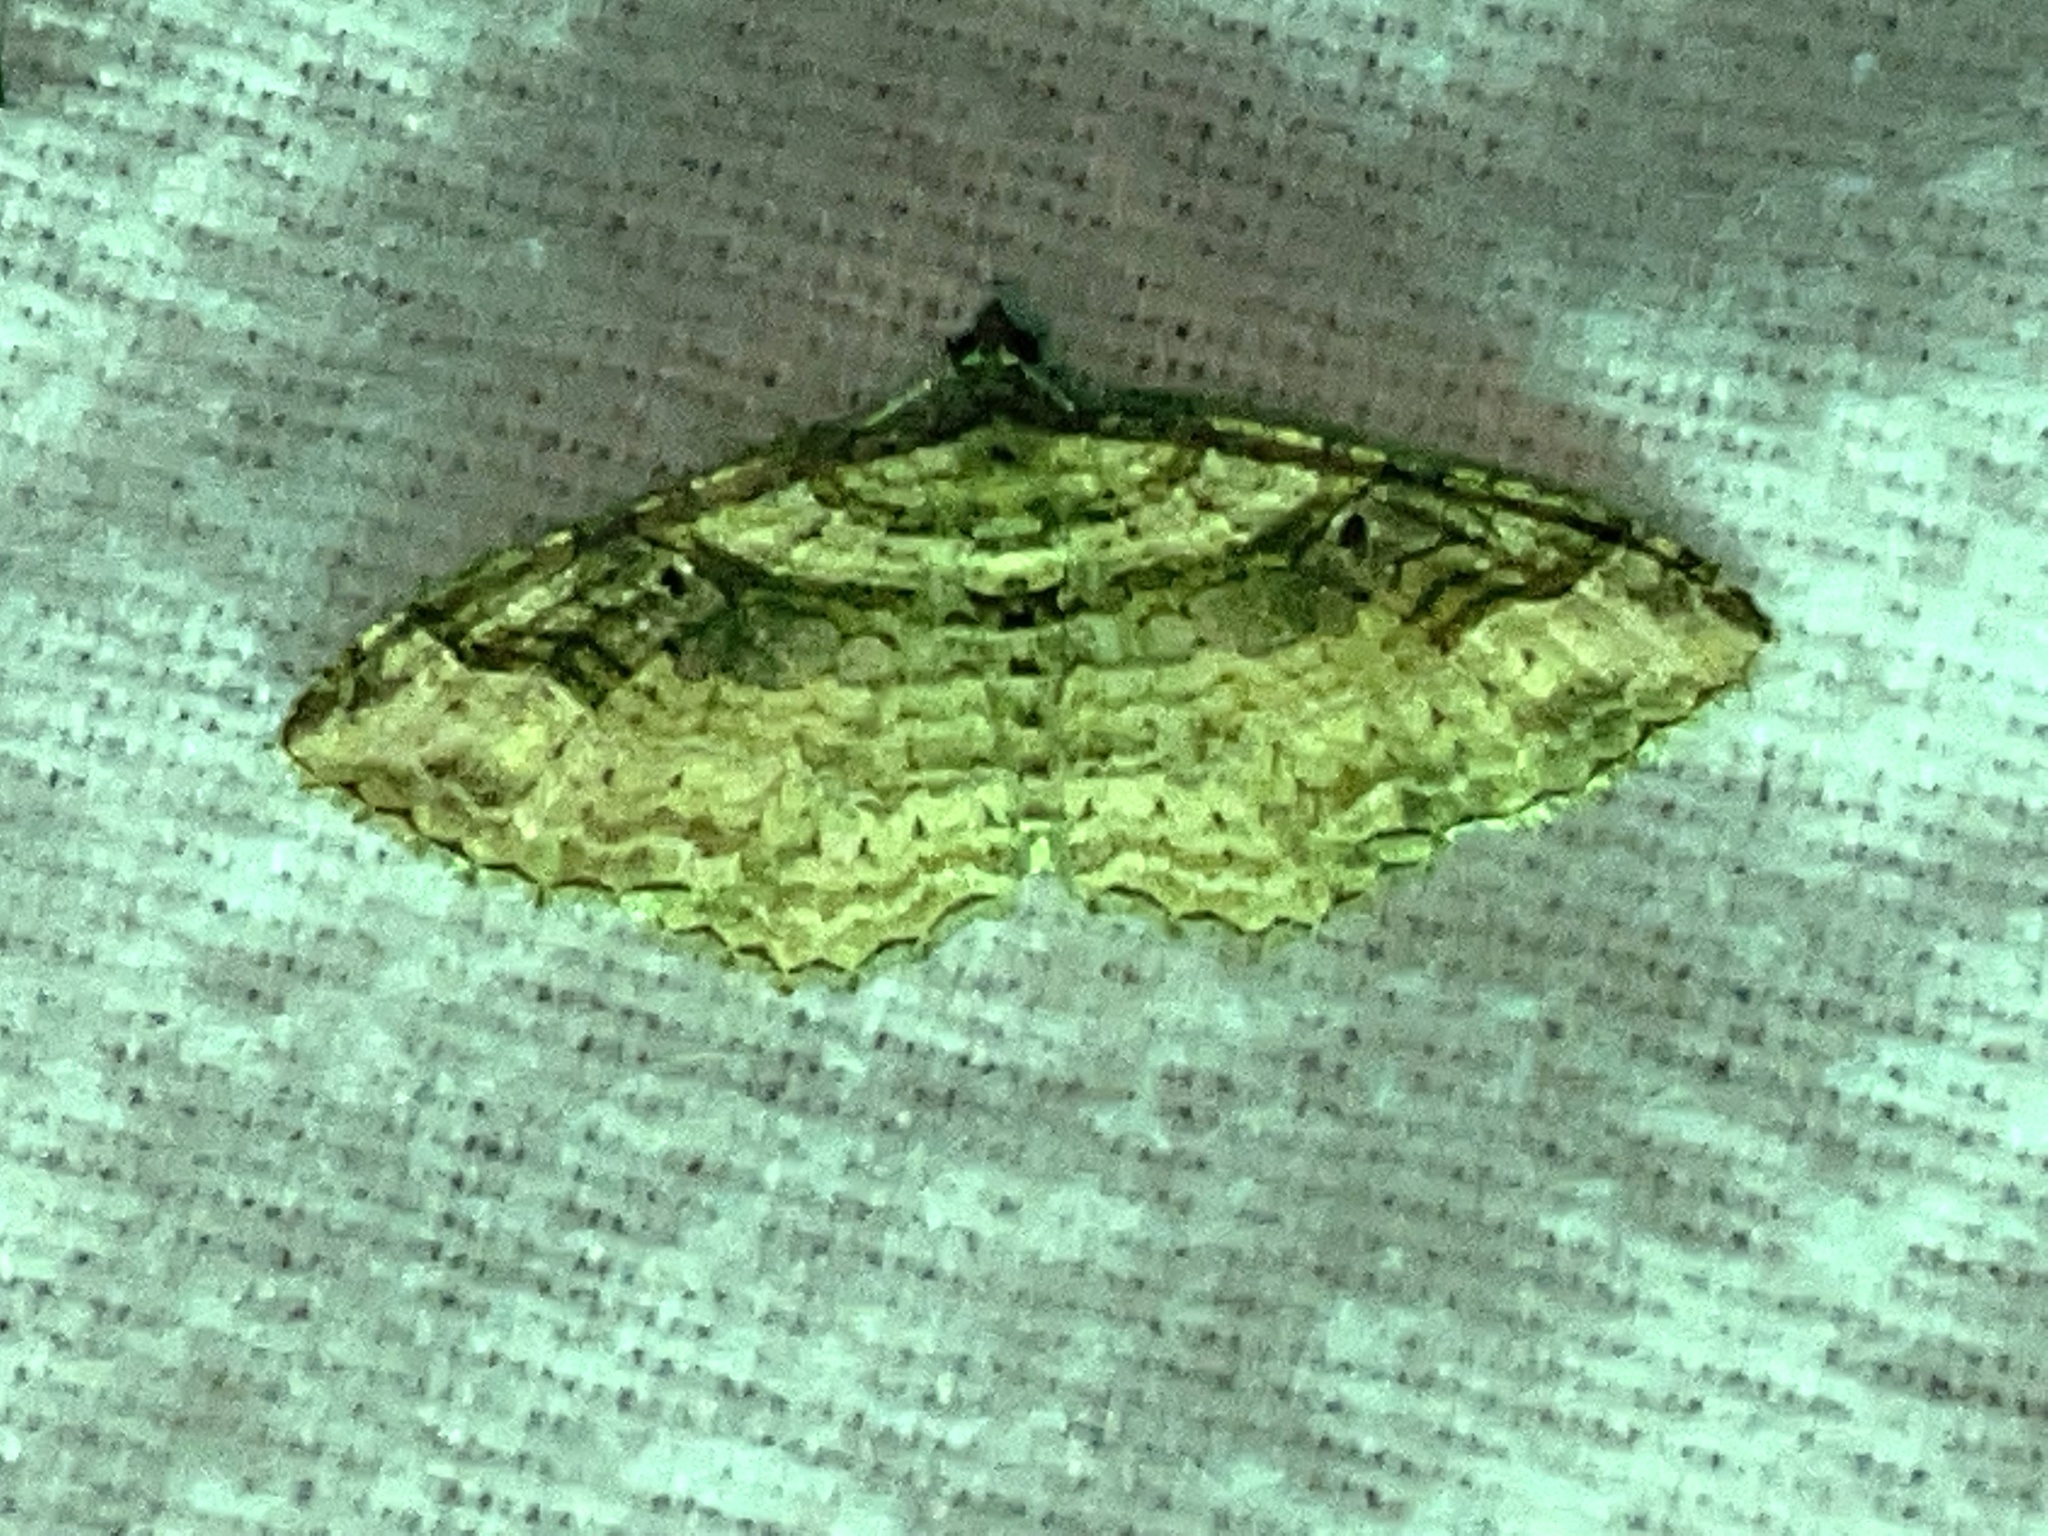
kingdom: Animalia
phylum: Arthropoda
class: Insecta
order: Lepidoptera
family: Geometridae
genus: Costaconvexa
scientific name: Costaconvexa centrostrigaria
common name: Bent-line carpet
